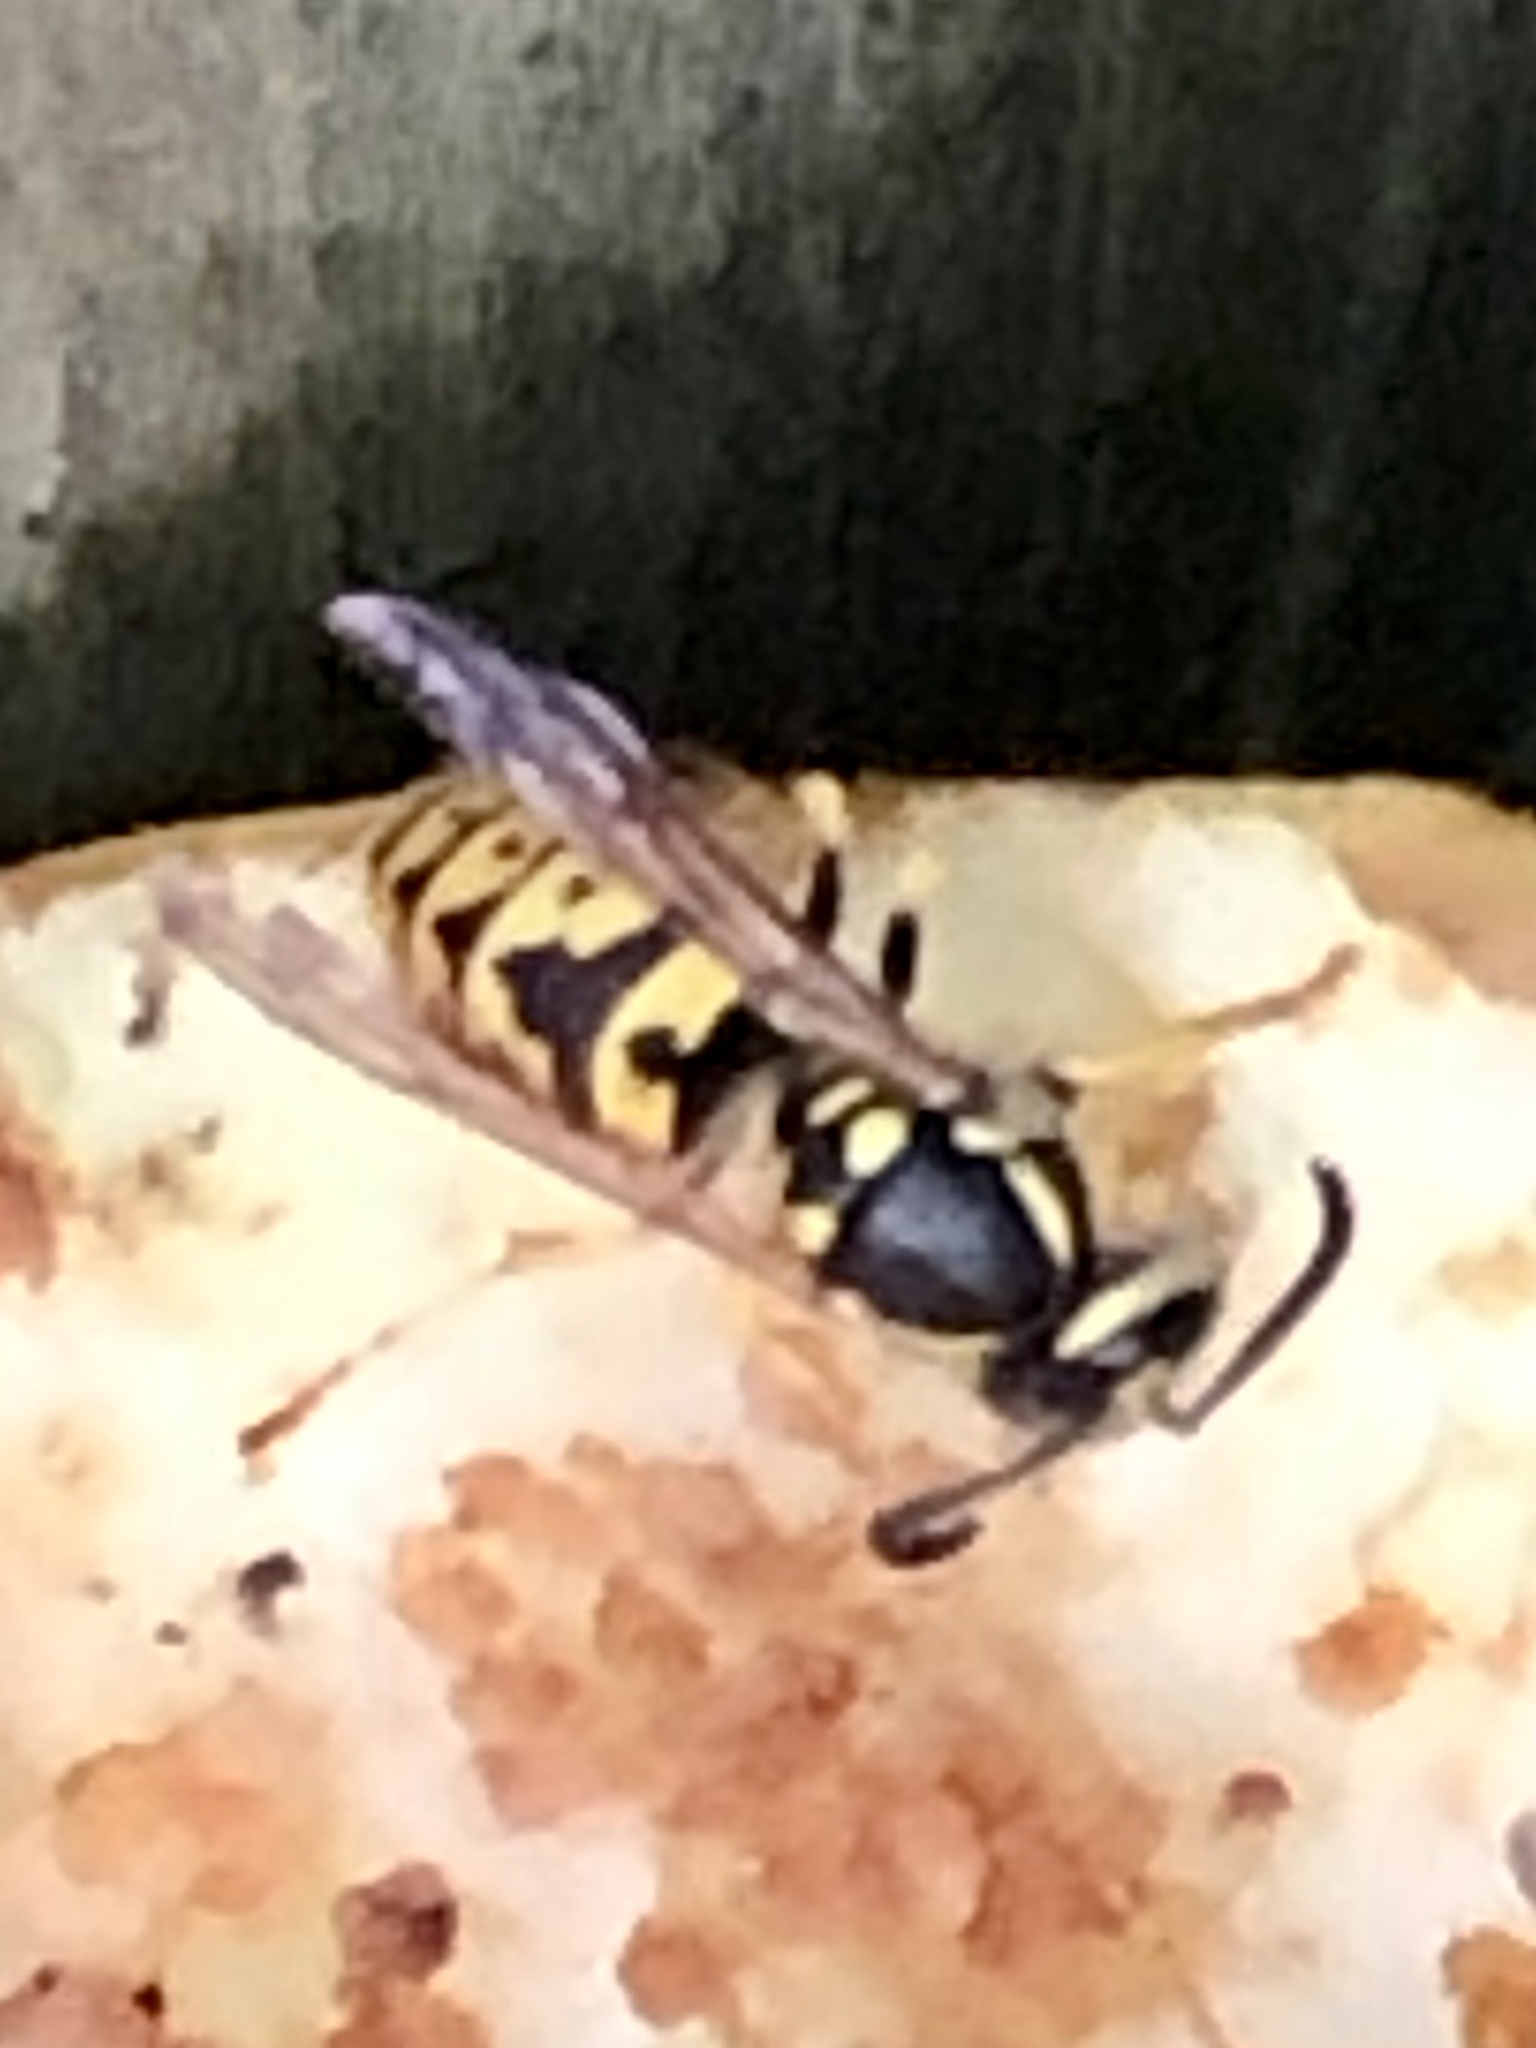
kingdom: Animalia
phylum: Arthropoda
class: Insecta
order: Hymenoptera
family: Vespidae
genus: Vespula
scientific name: Vespula germanica
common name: German wasp
